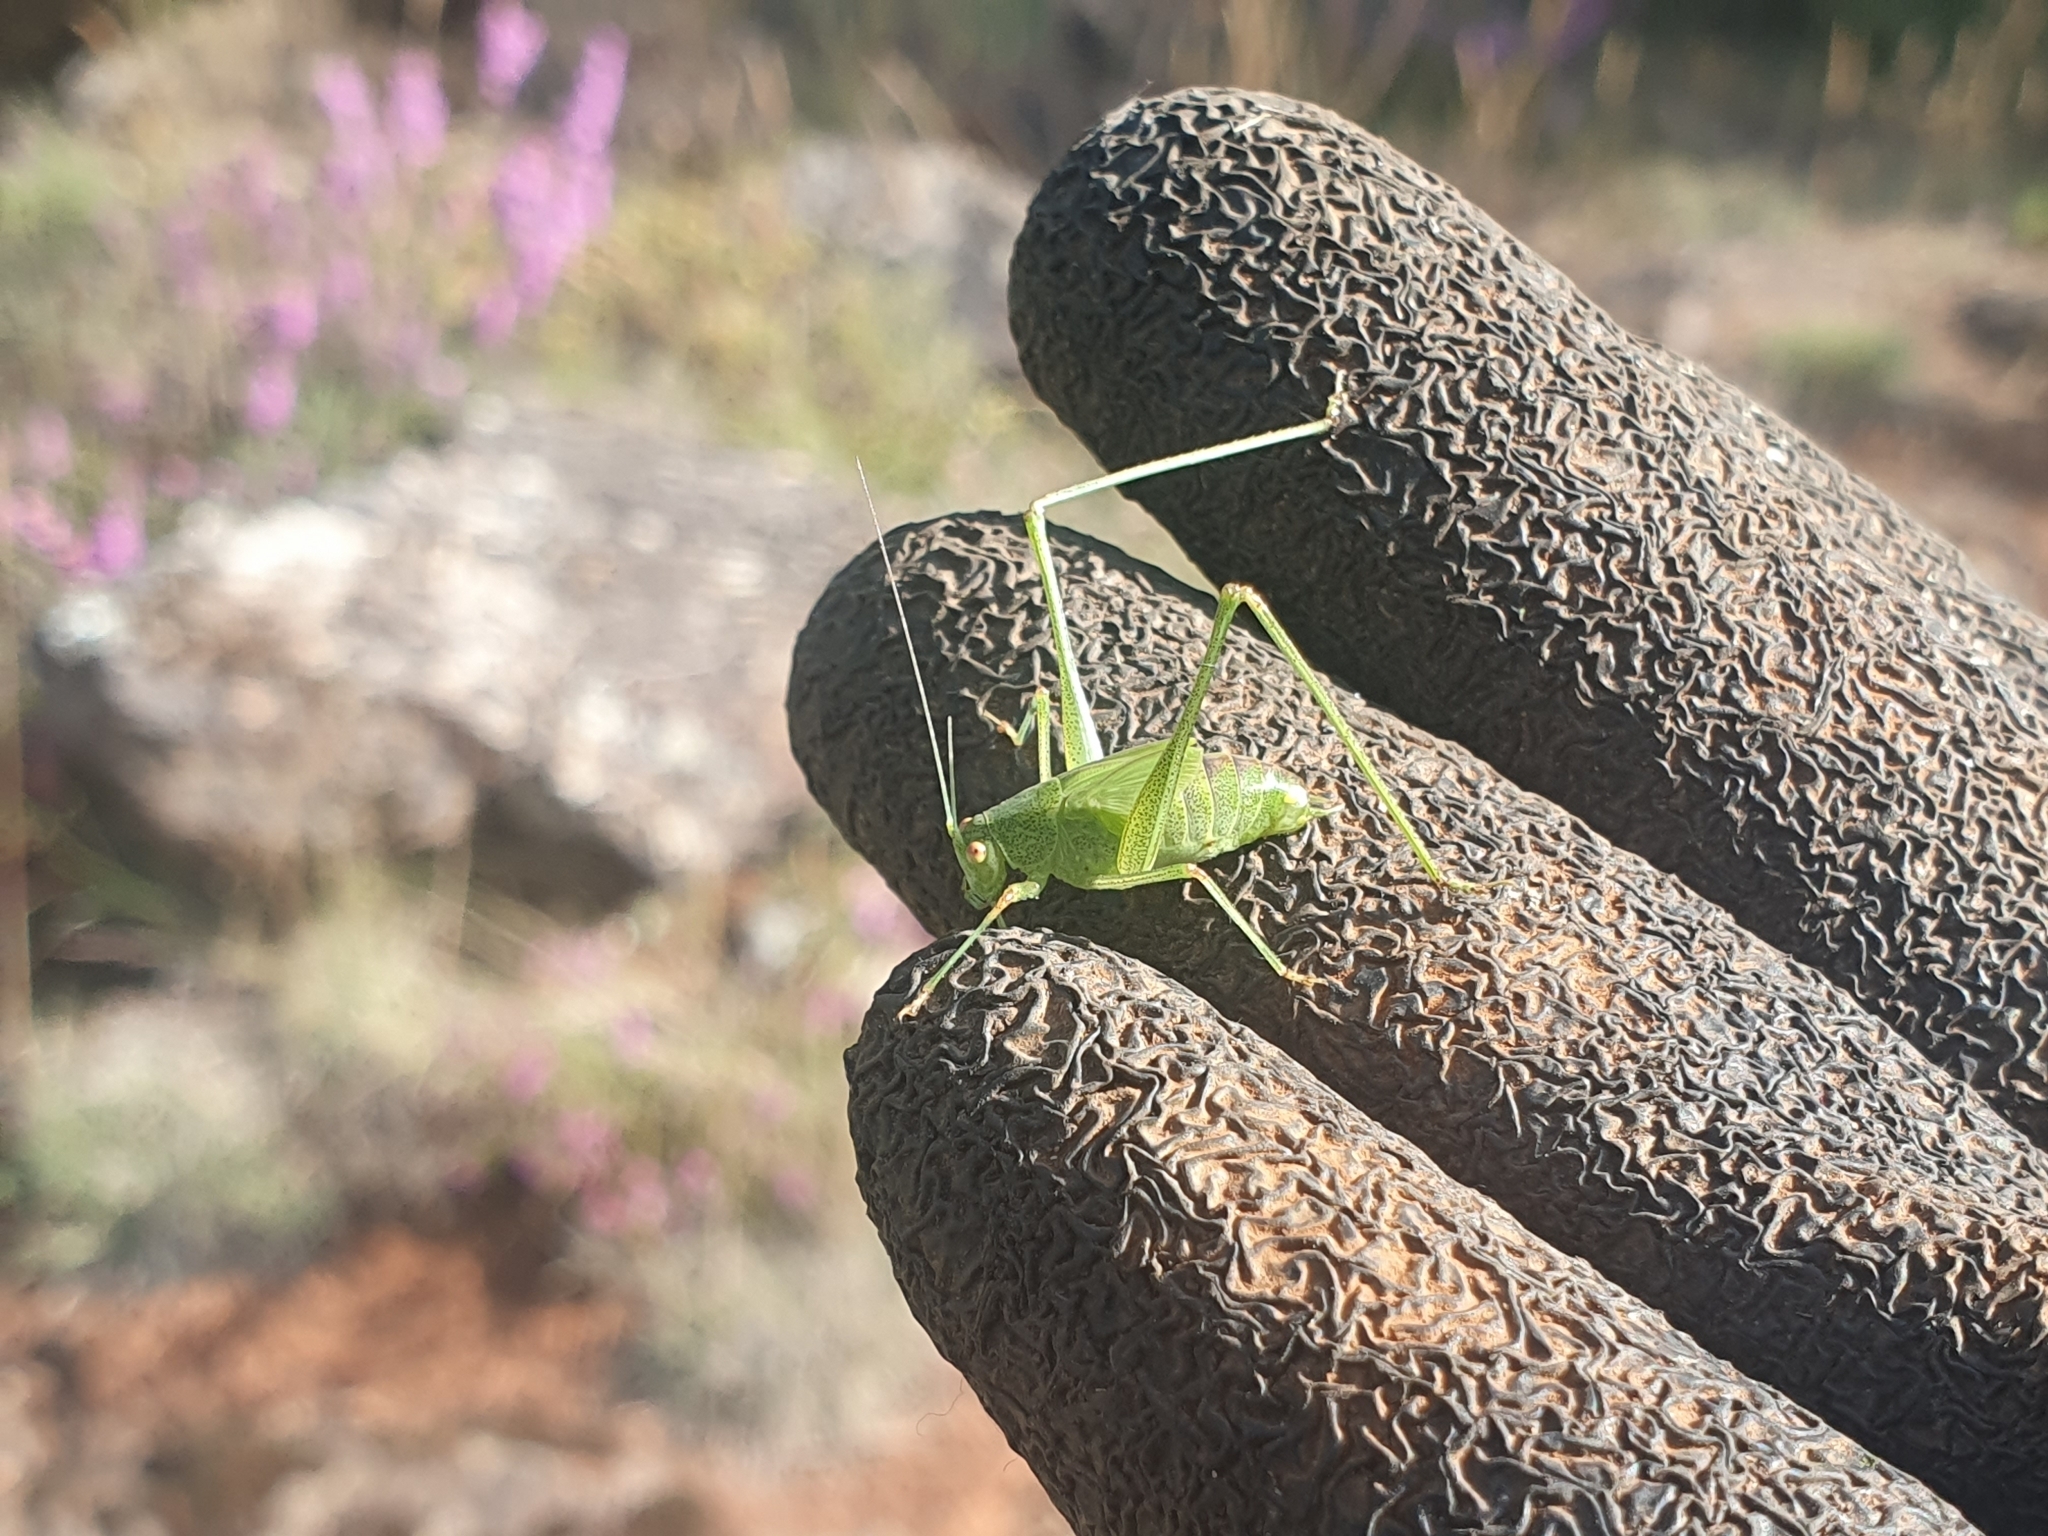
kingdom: Animalia
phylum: Arthropoda
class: Insecta
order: Orthoptera
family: Tettigoniidae
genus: Phaneroptera
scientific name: Phaneroptera nana
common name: Southern sickle bush-cricket
